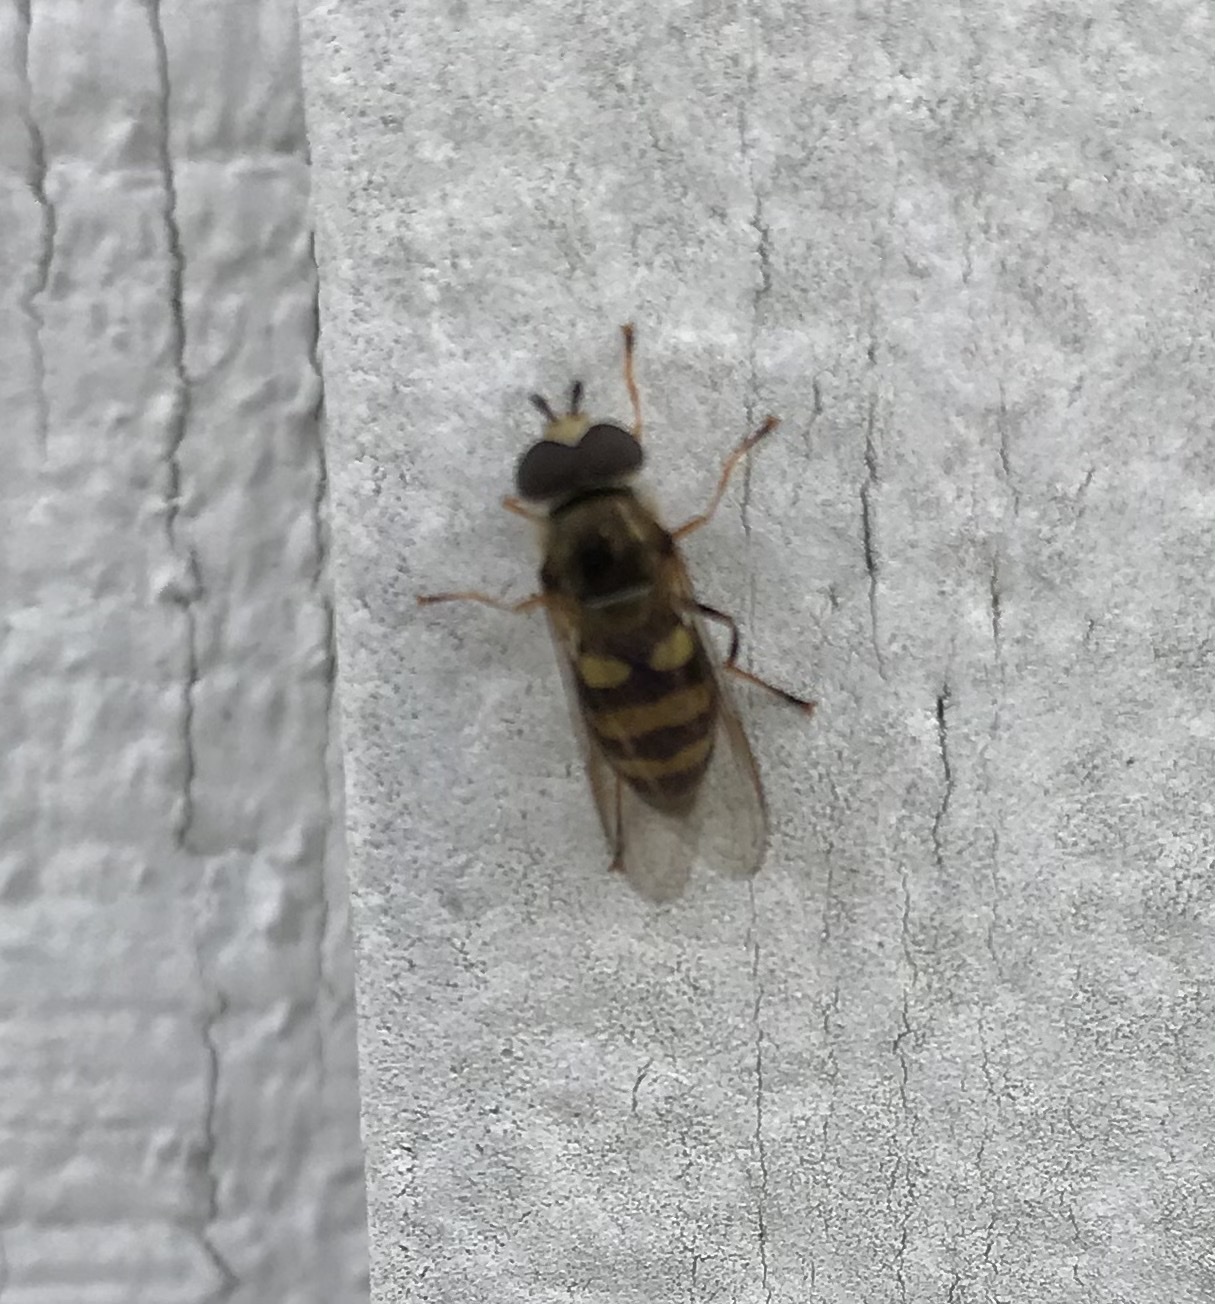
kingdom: Animalia
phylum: Arthropoda
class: Insecta
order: Diptera
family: Syrphidae
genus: Eupeodes
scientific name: Eupeodes
